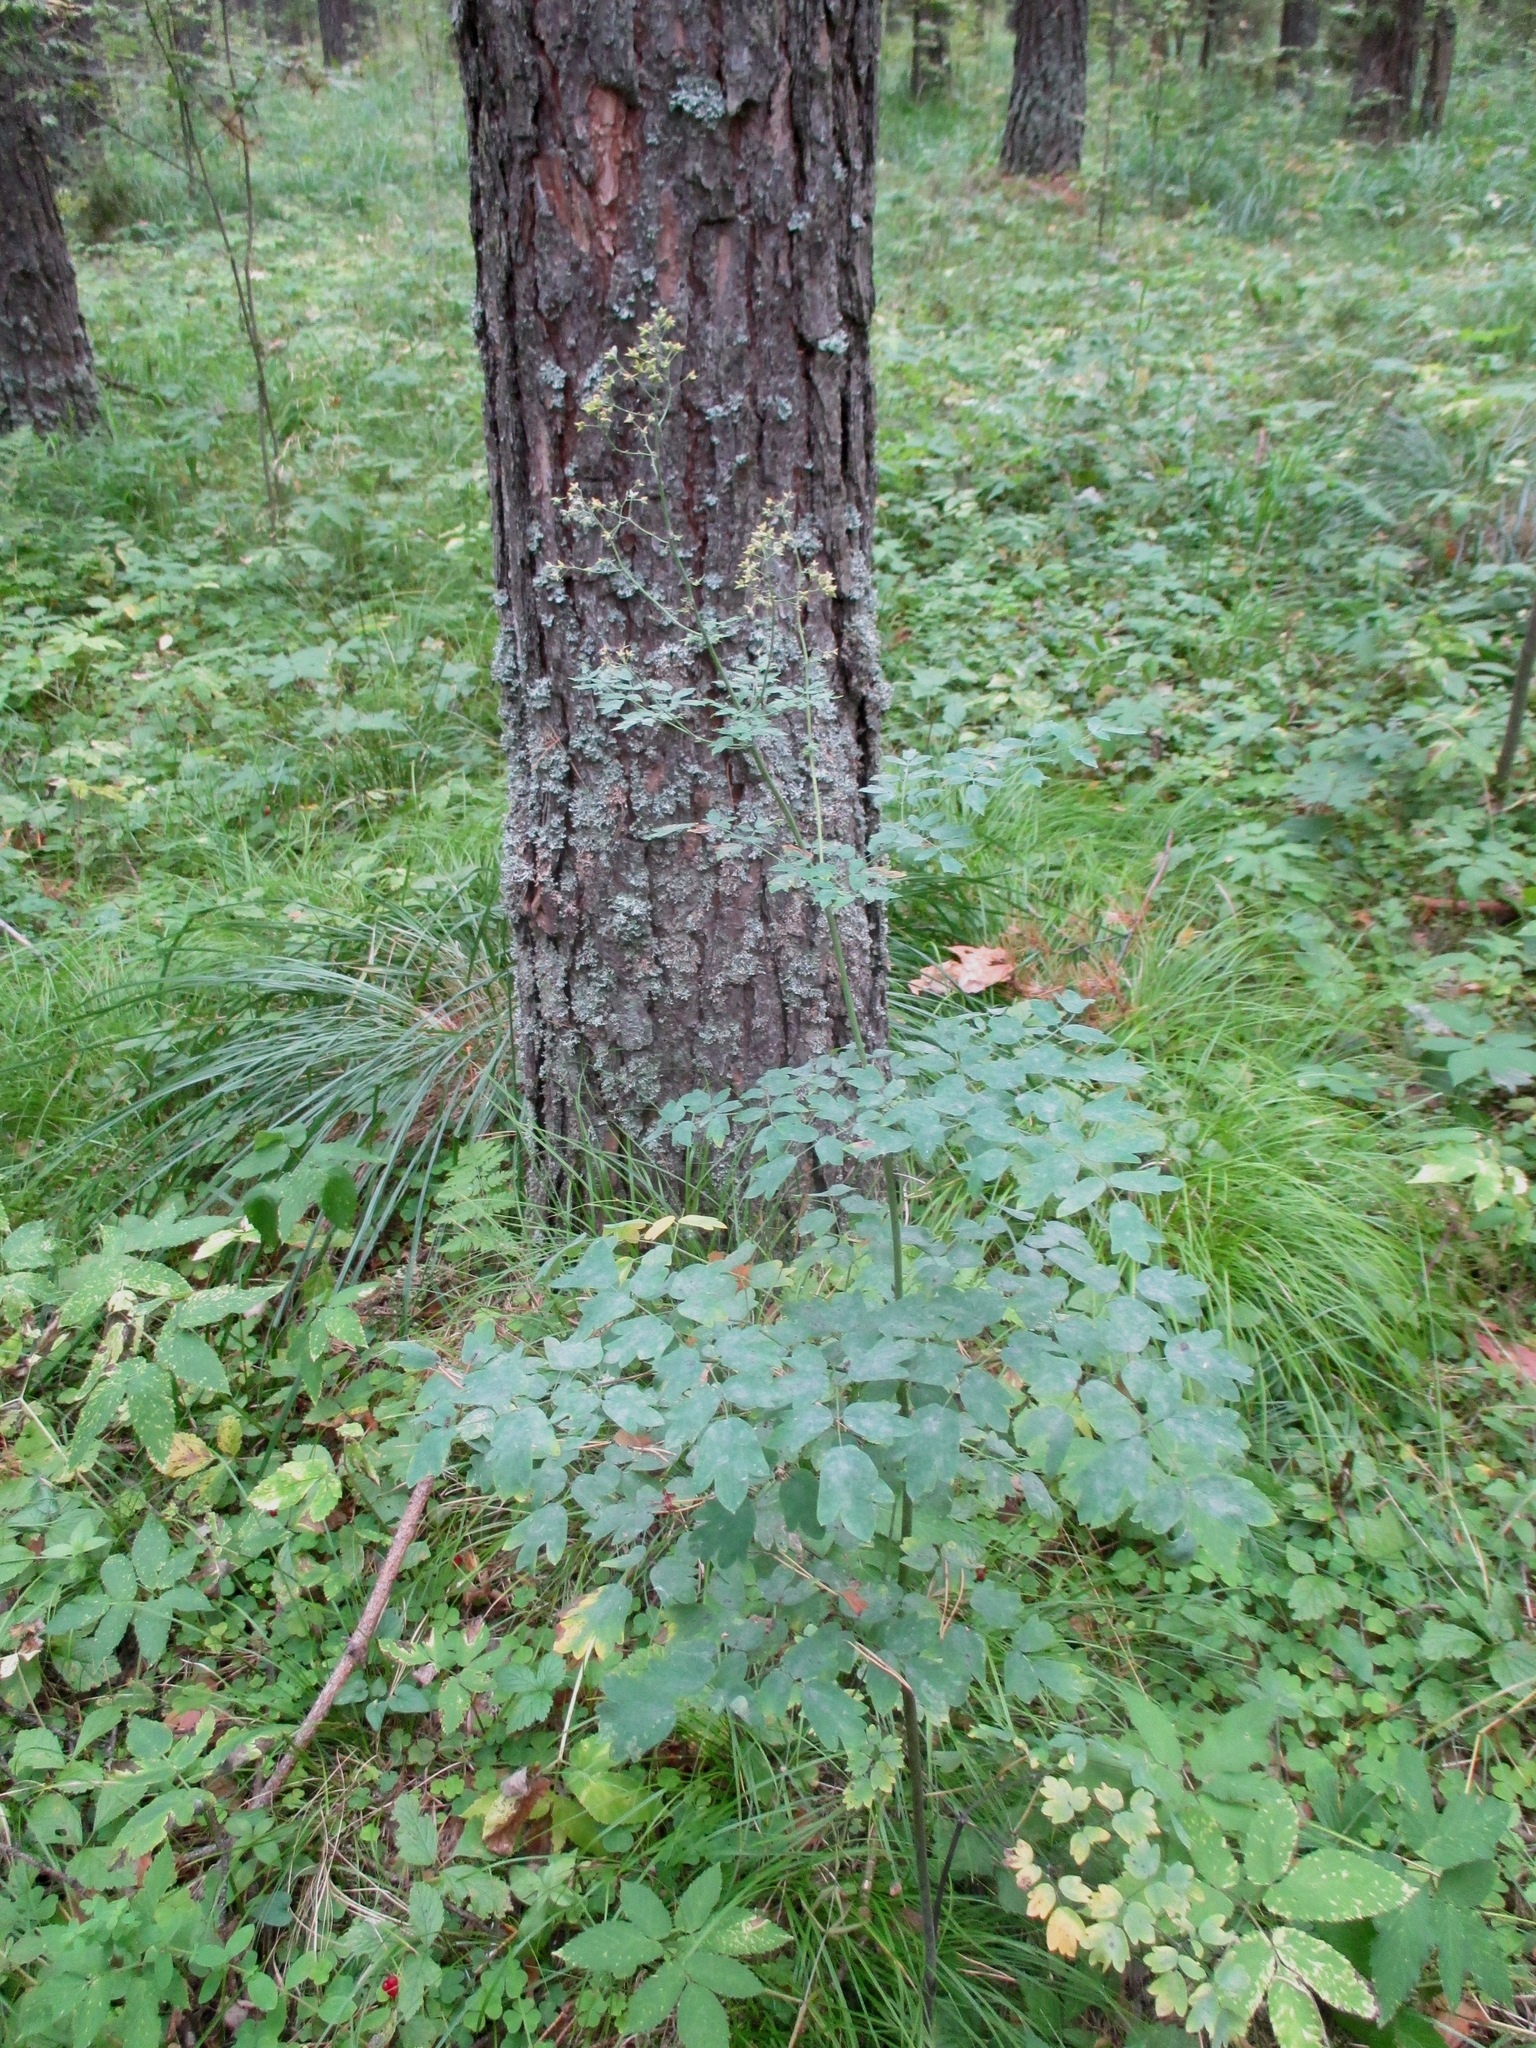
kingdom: Plantae
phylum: Tracheophyta
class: Magnoliopsida
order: Ranunculales
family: Ranunculaceae
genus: Thalictrum
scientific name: Thalictrum minus
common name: Lesser meadow-rue
